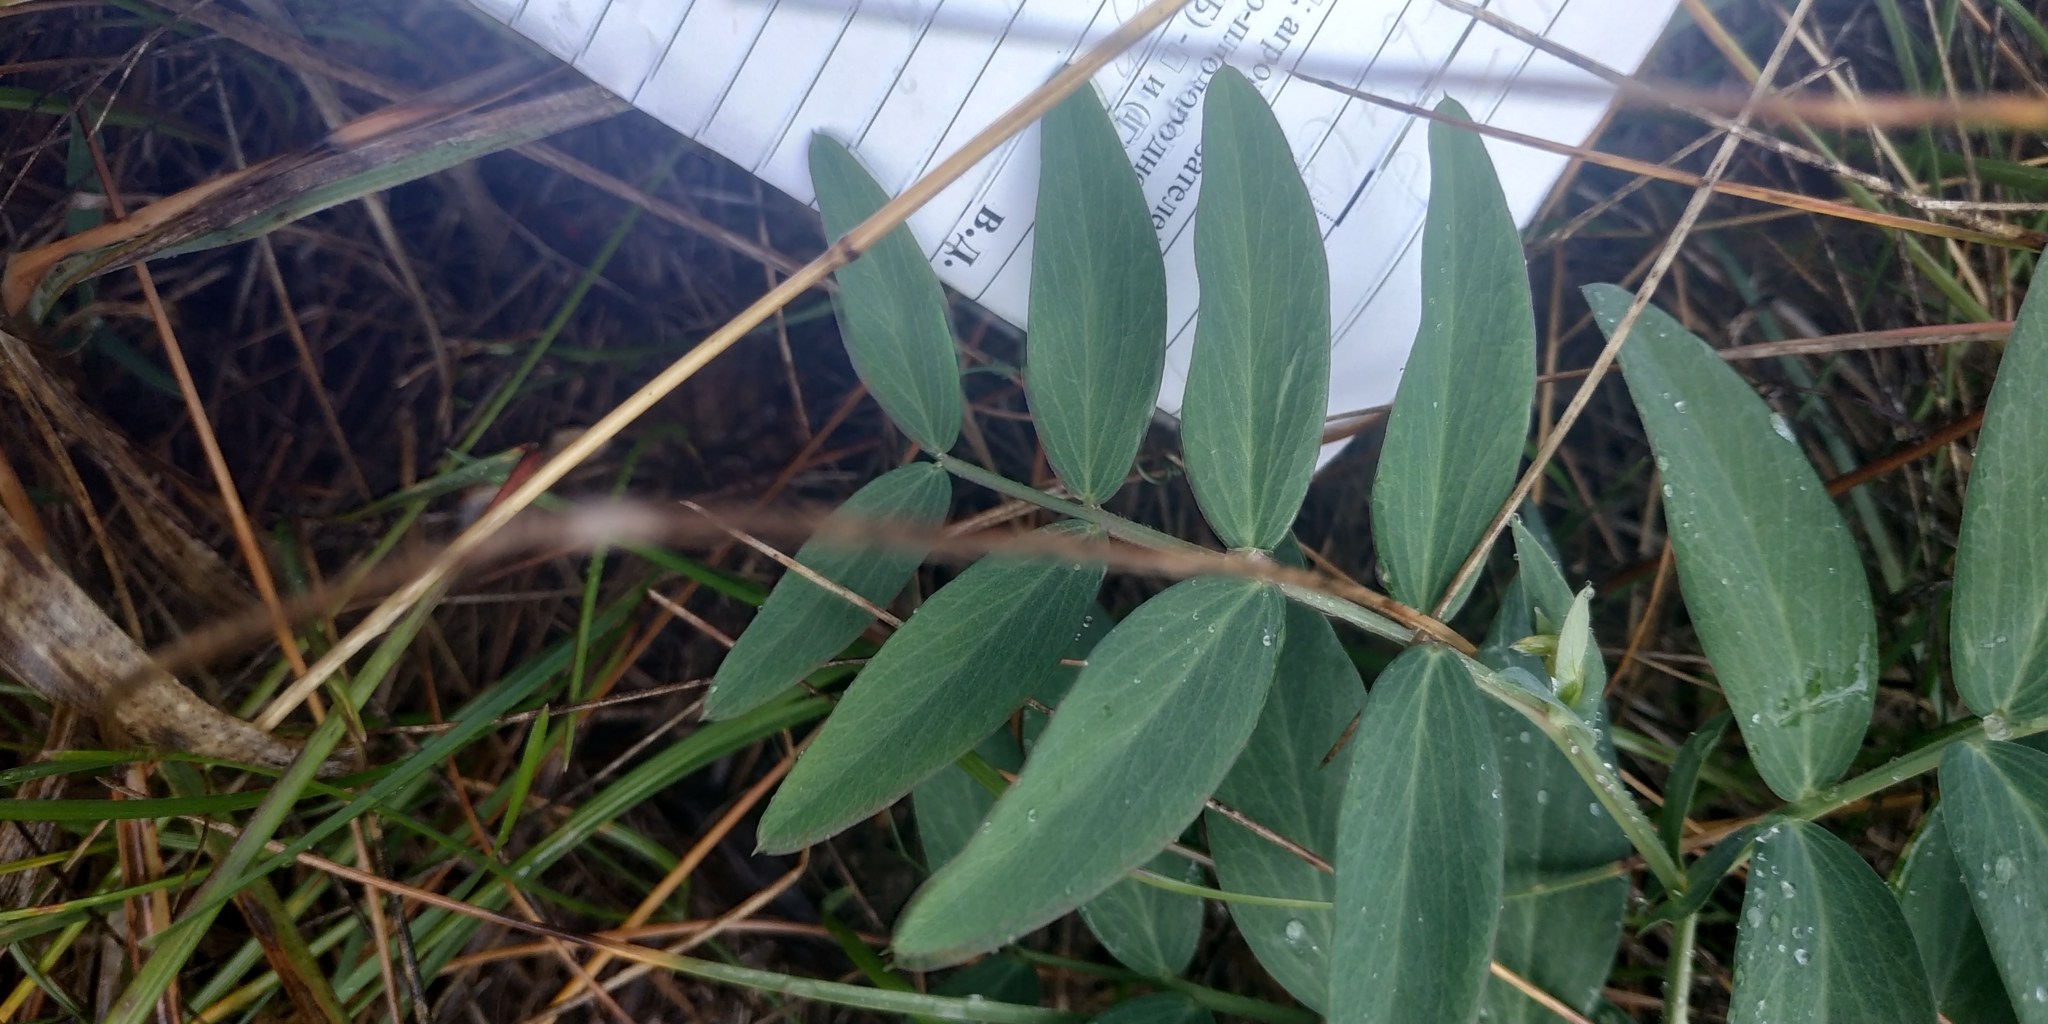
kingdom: Plantae
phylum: Tracheophyta
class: Magnoliopsida
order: Fabales
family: Fabaceae
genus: Lathyrus
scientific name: Lathyrus pisiformis
